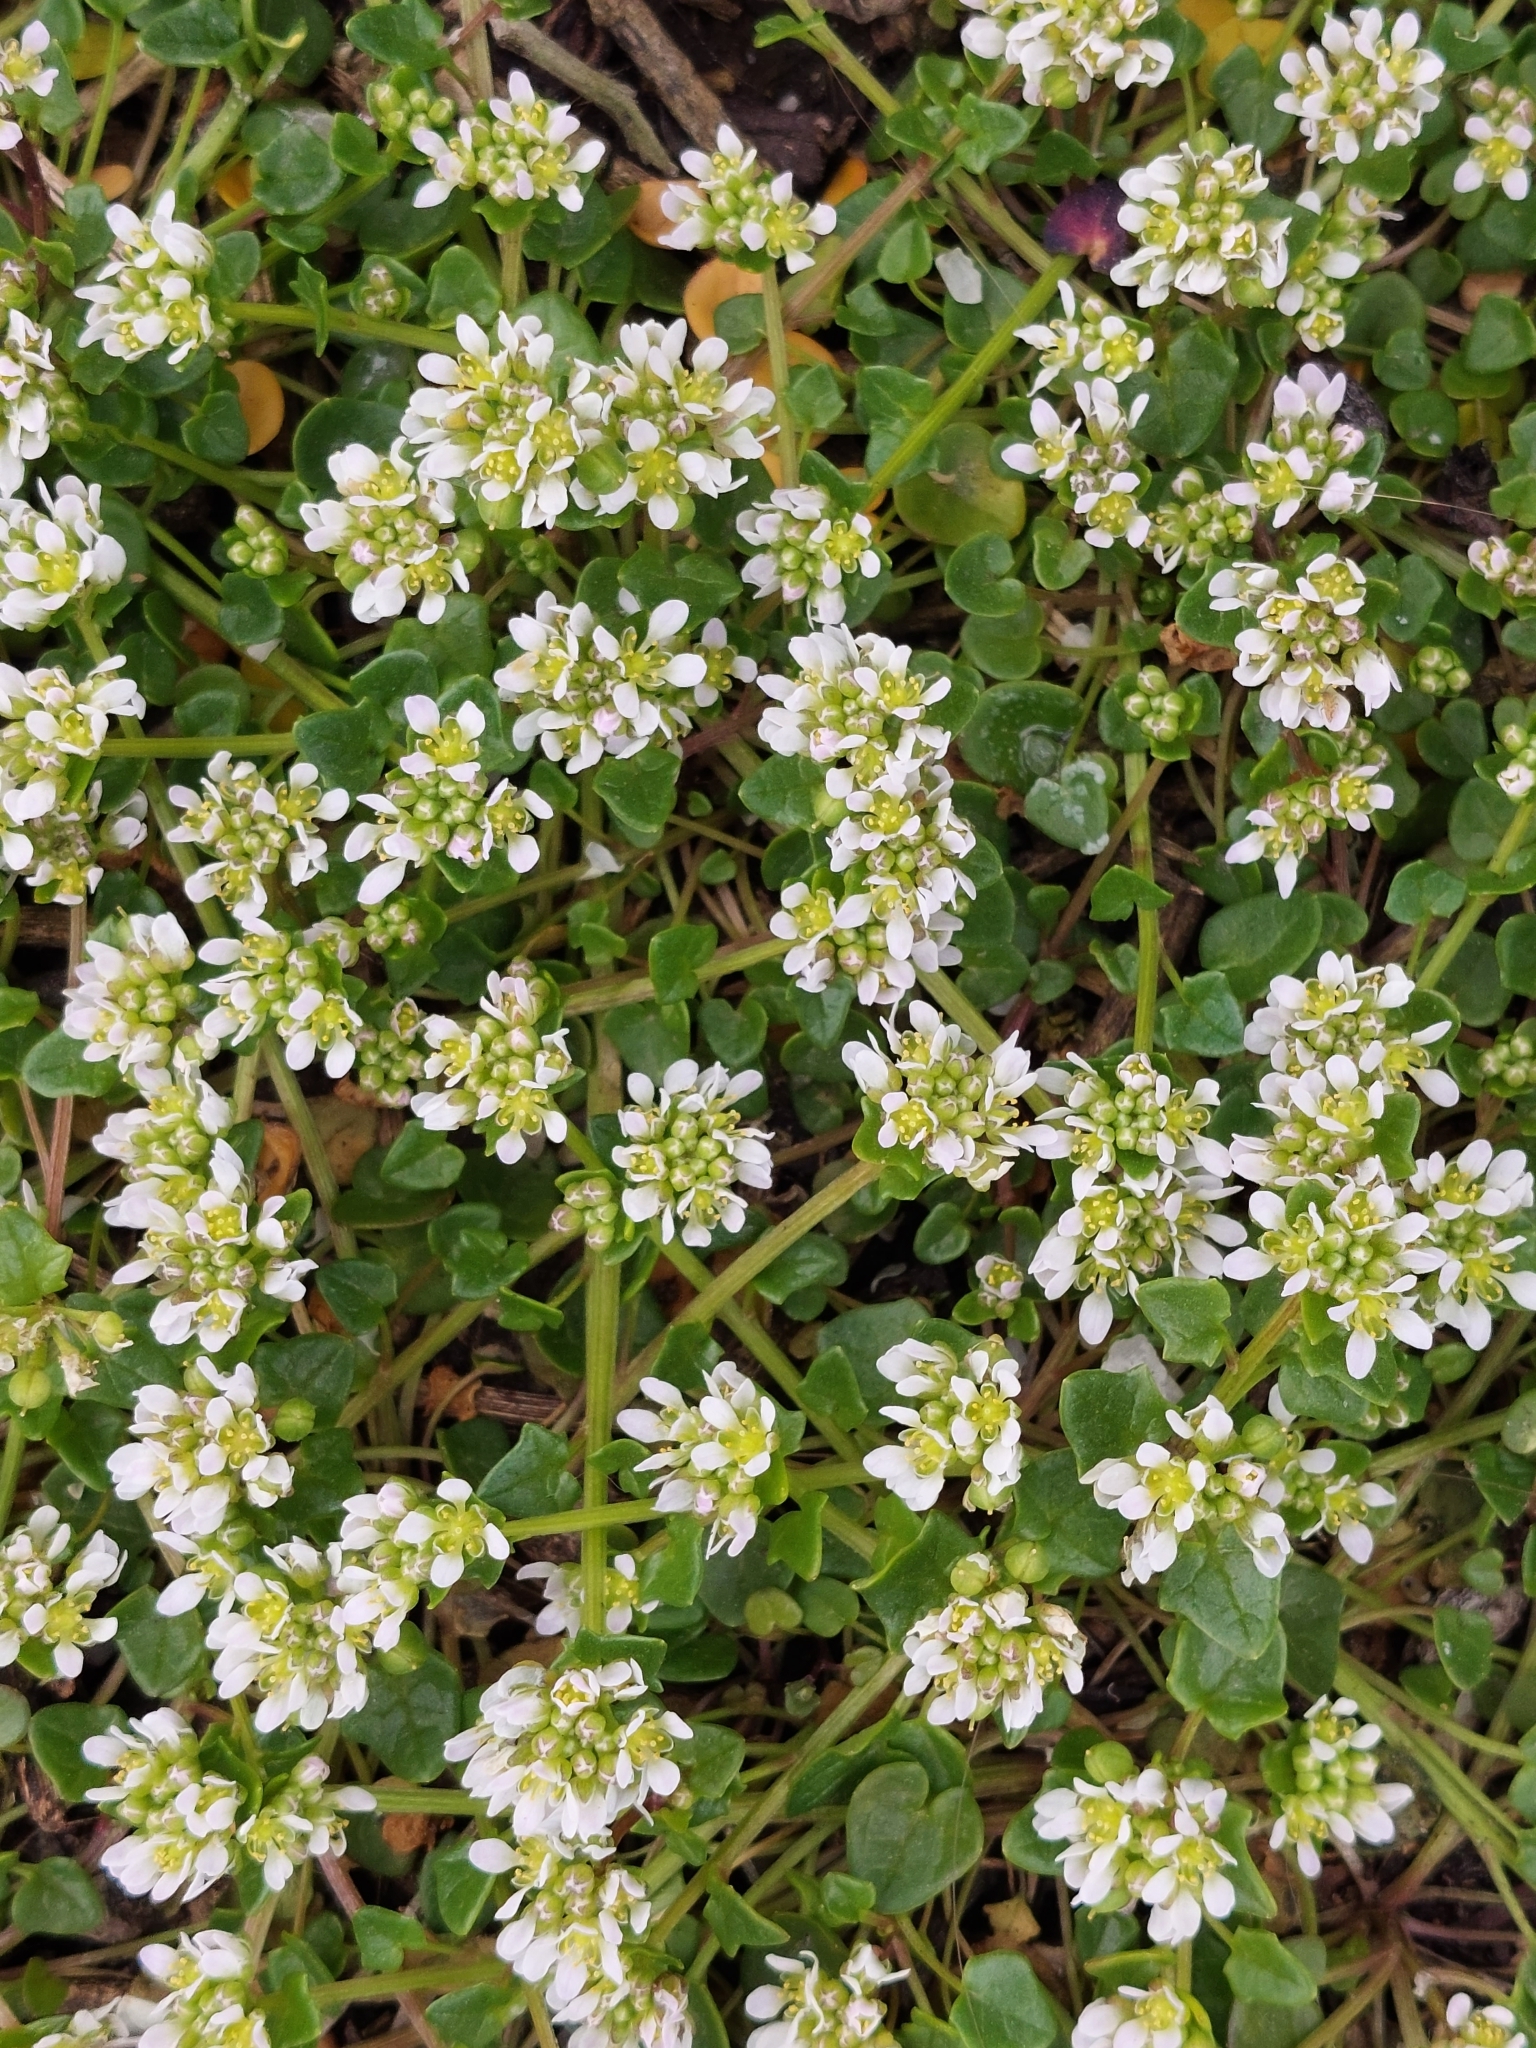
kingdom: Plantae
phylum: Tracheophyta
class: Magnoliopsida
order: Brassicales
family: Brassicaceae
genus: Cochlearia
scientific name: Cochlearia officinalis
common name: Scurvy-grass
